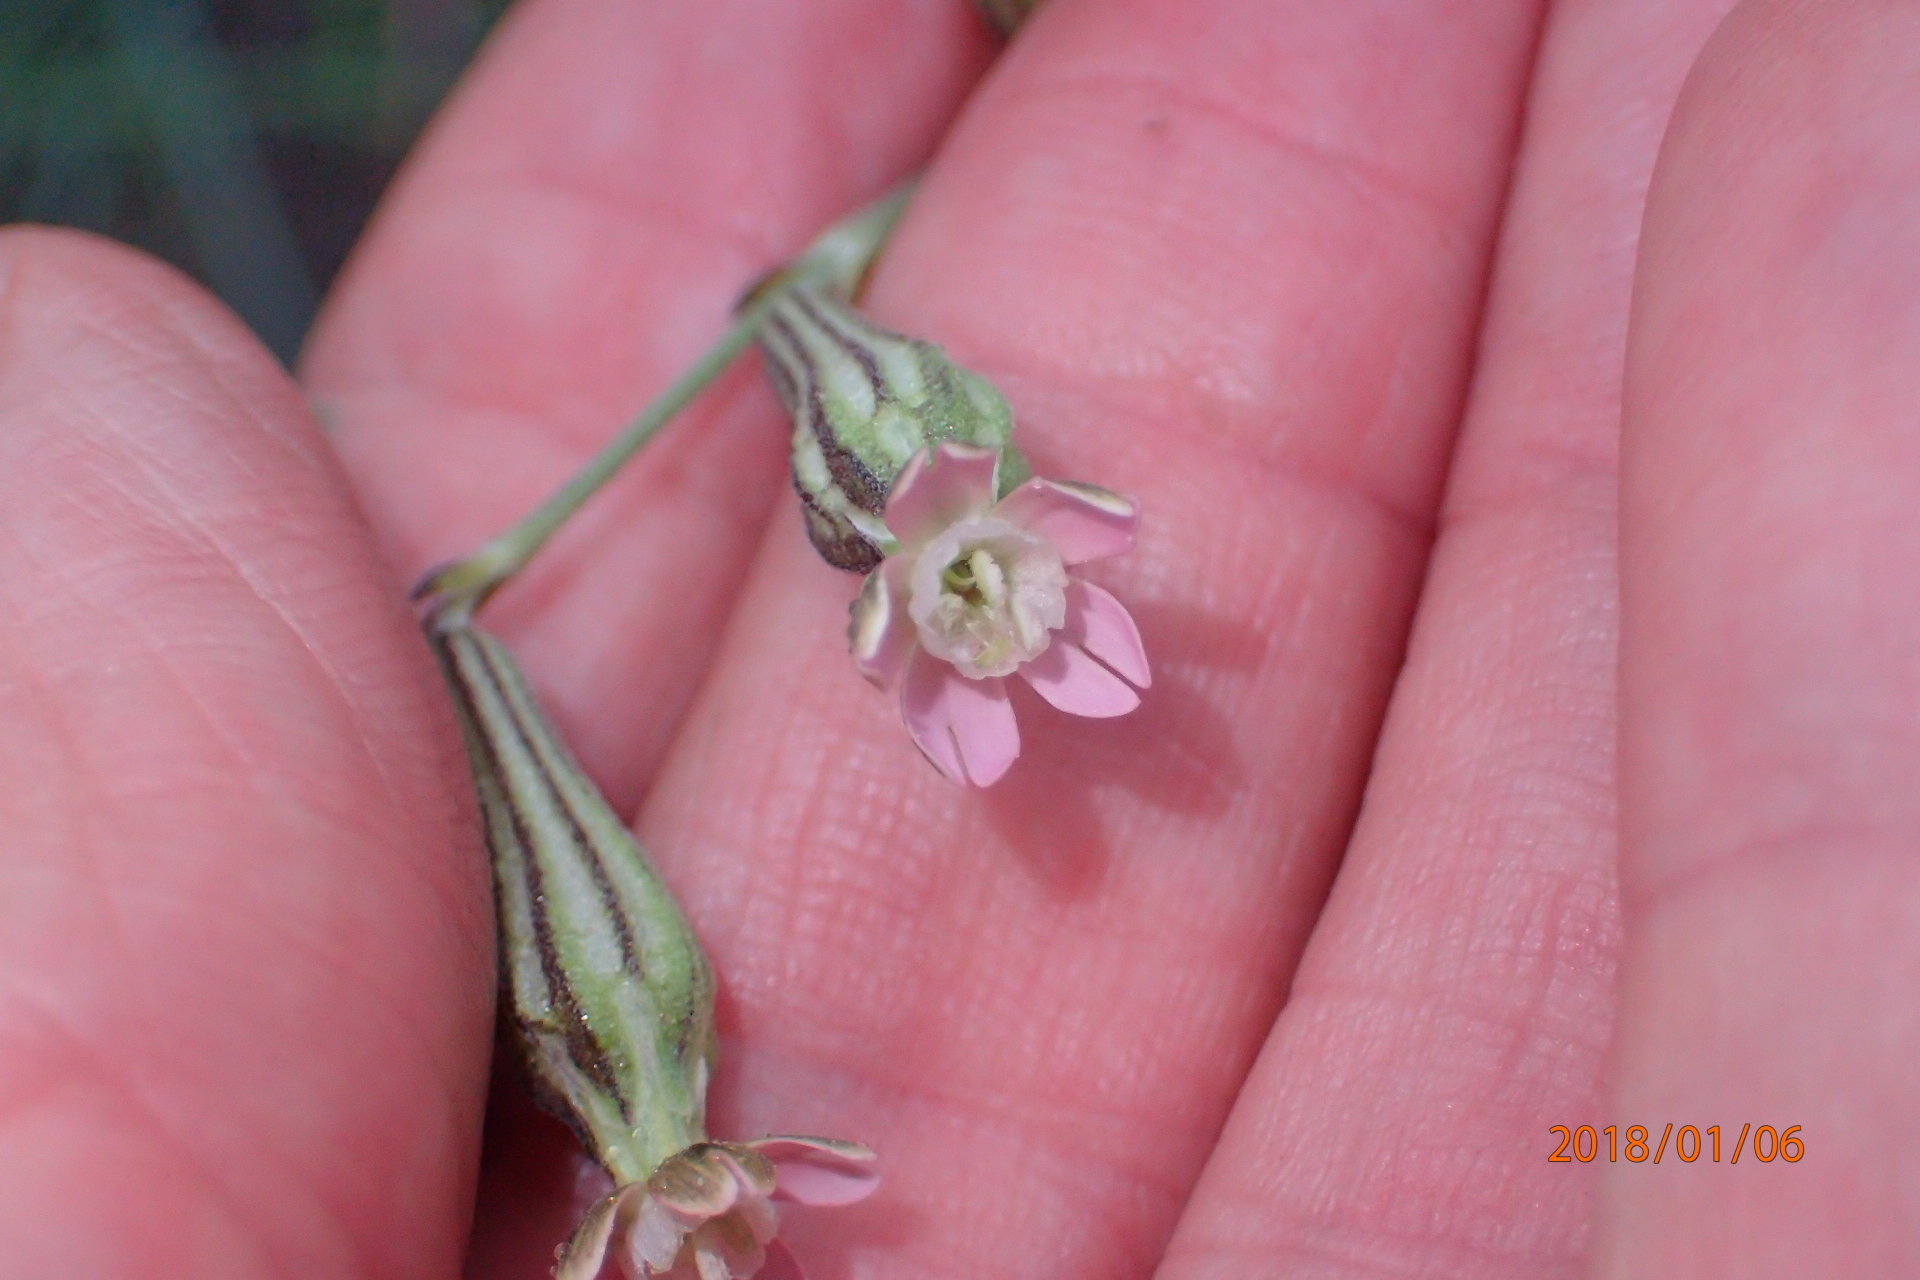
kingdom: Plantae
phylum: Tracheophyta
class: Magnoliopsida
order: Caryophyllales
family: Caryophyllaceae
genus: Silene
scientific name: Silene burchellii
